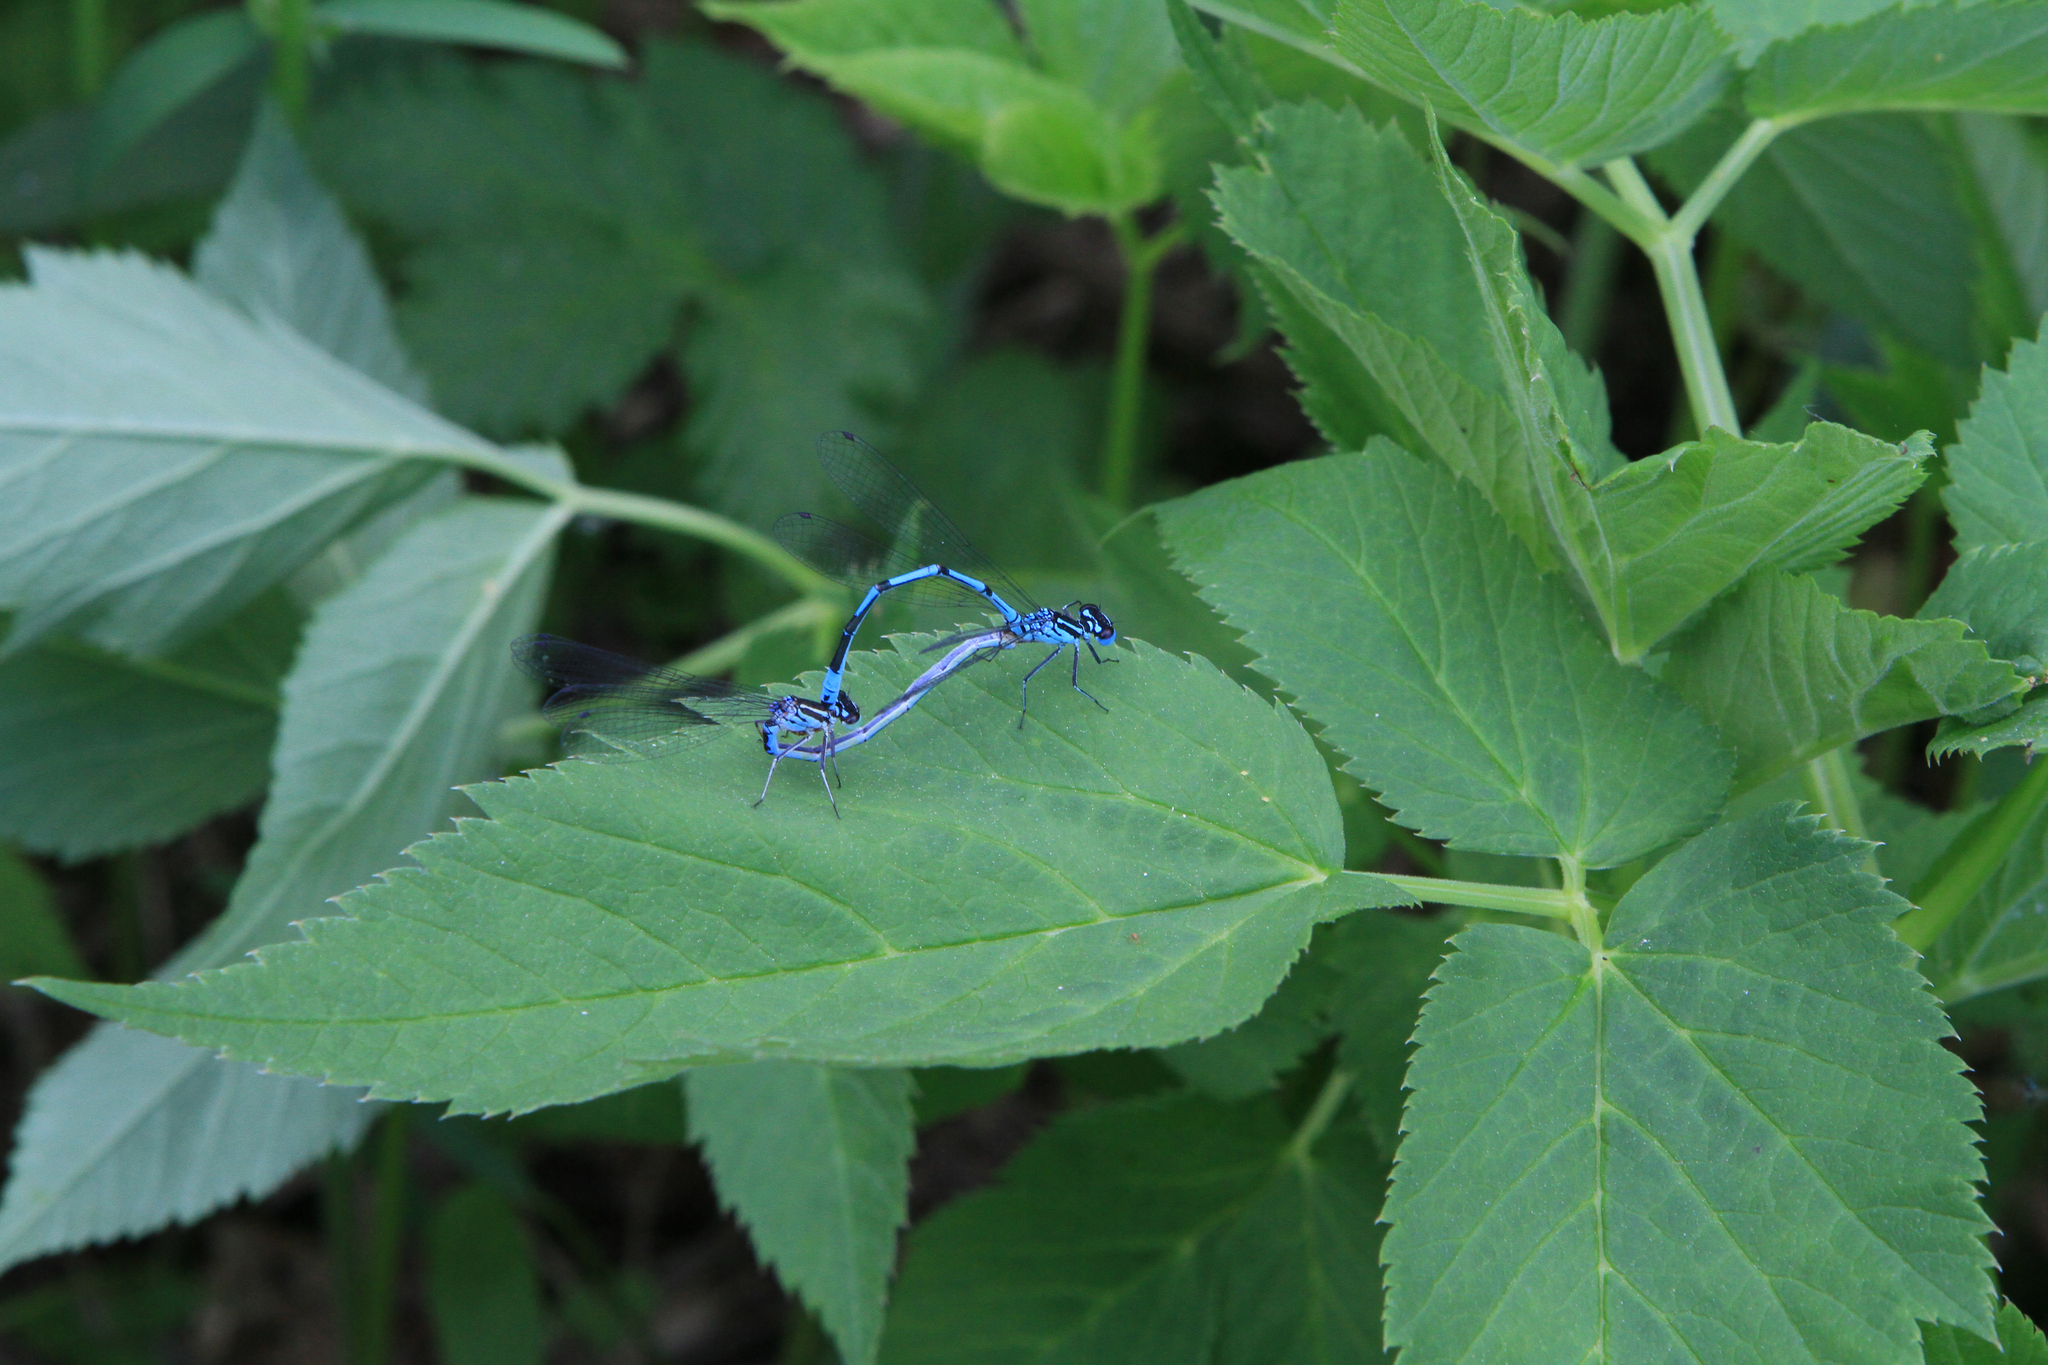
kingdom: Plantae
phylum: Tracheophyta
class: Magnoliopsida
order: Apiales
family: Apiaceae
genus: Aegopodium
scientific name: Aegopodium podagraria
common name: Ground-elder
